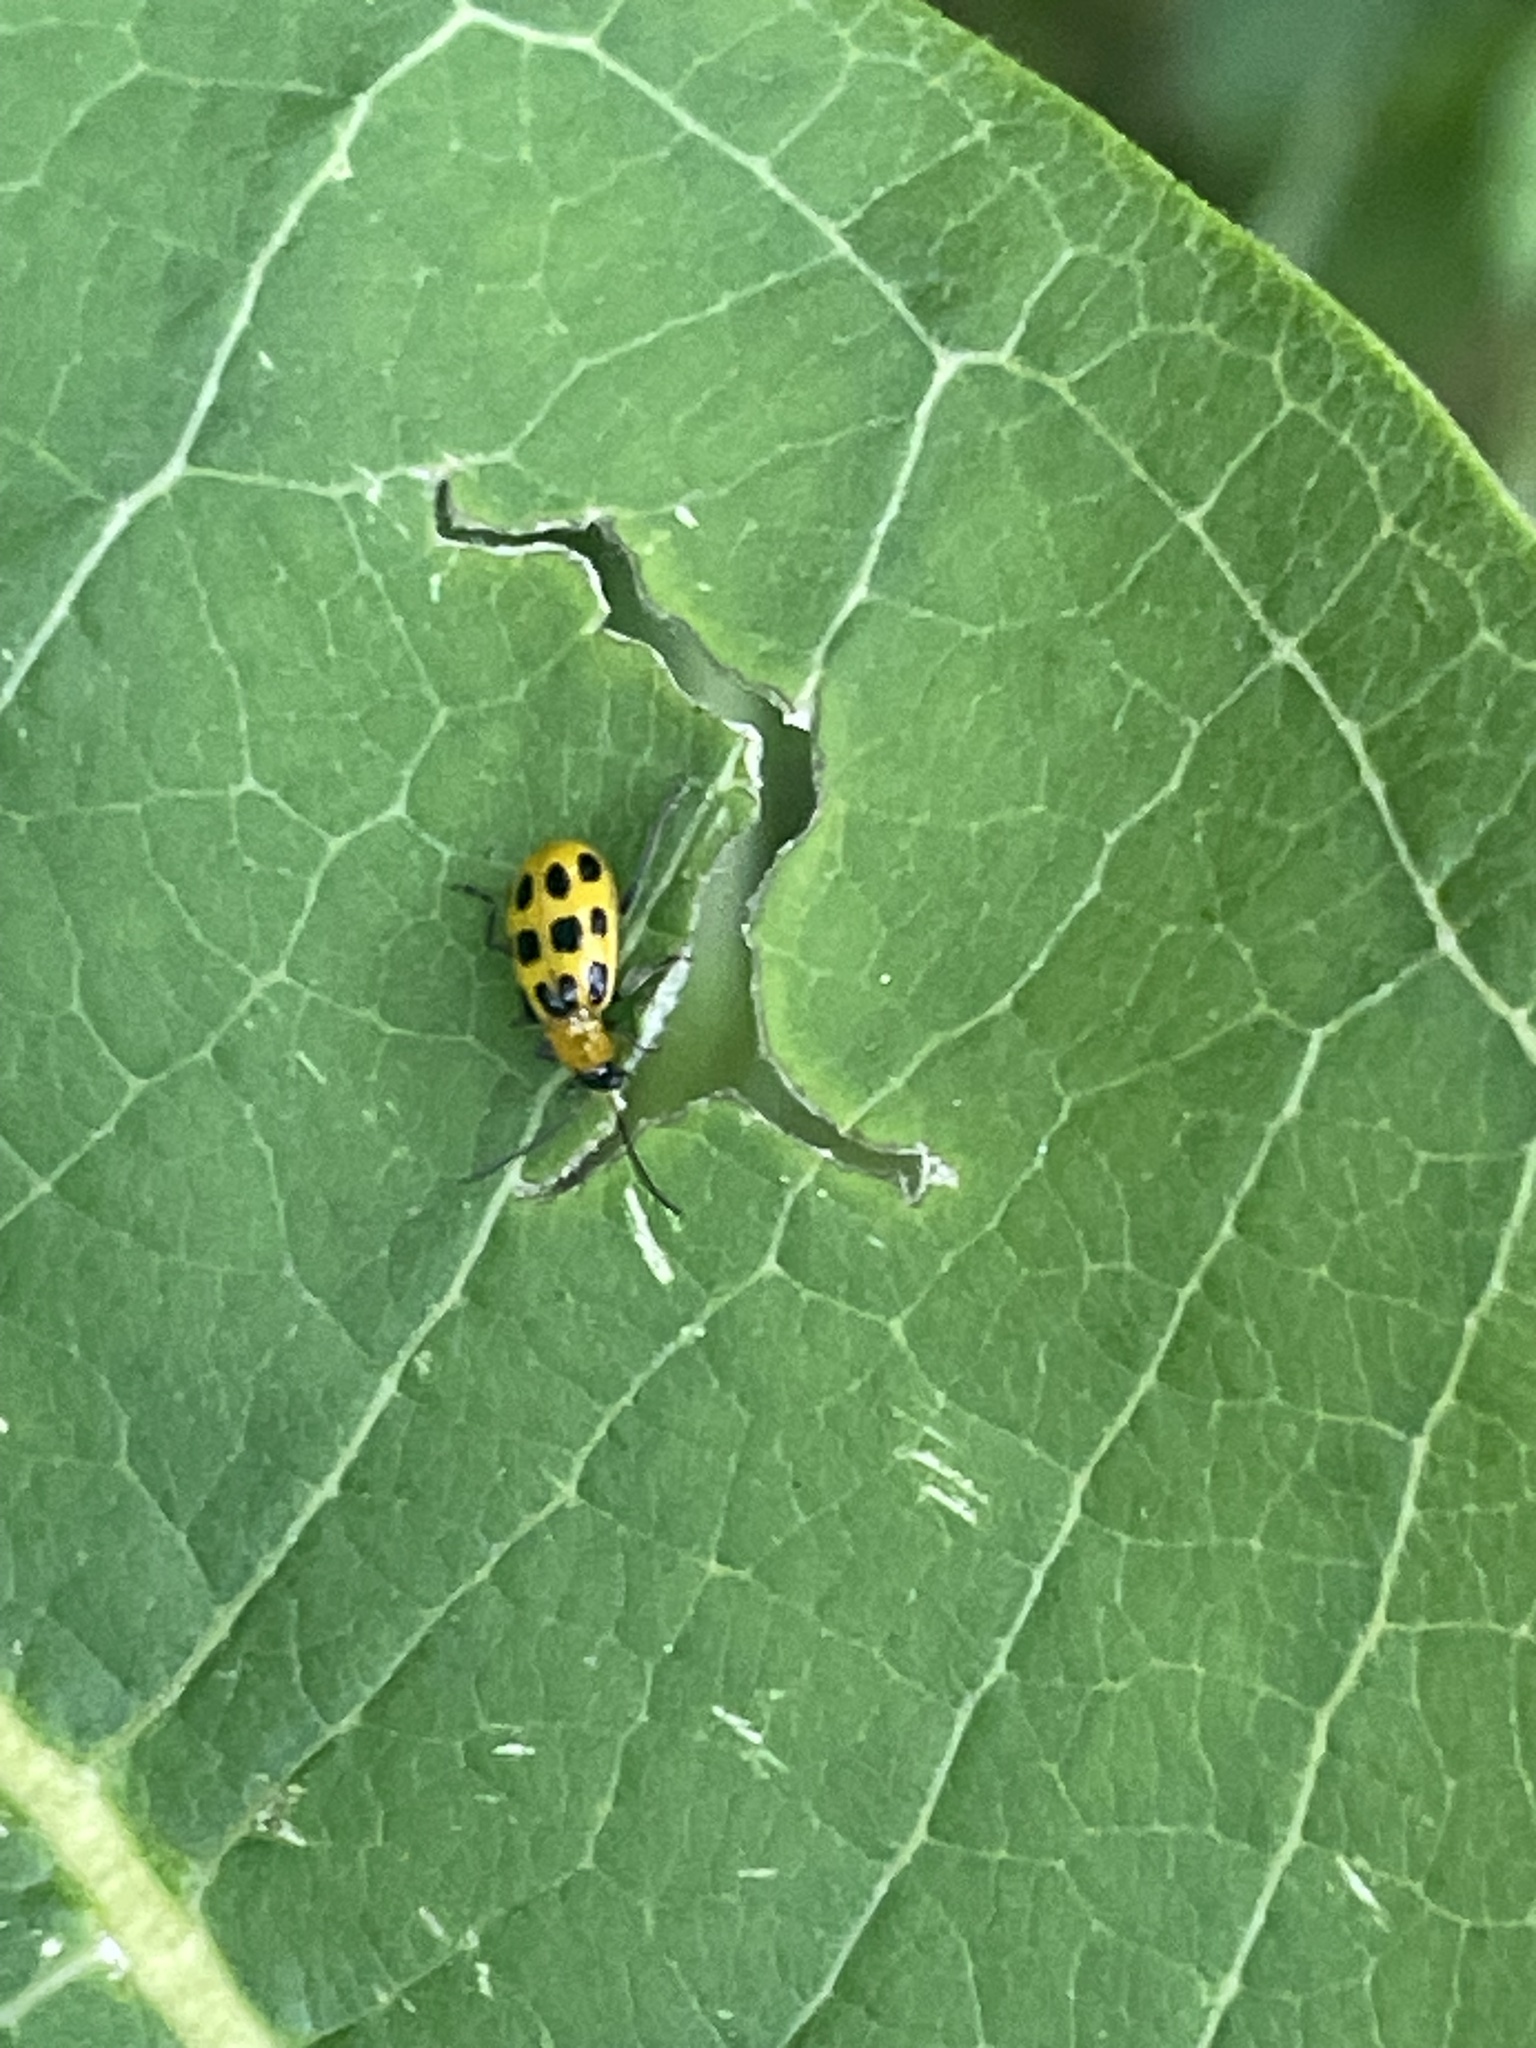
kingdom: Animalia
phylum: Arthropoda
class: Insecta
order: Coleoptera
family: Chrysomelidae
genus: Diabrotica
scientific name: Diabrotica undecimpunctata
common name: Spotted cucumber beetle
